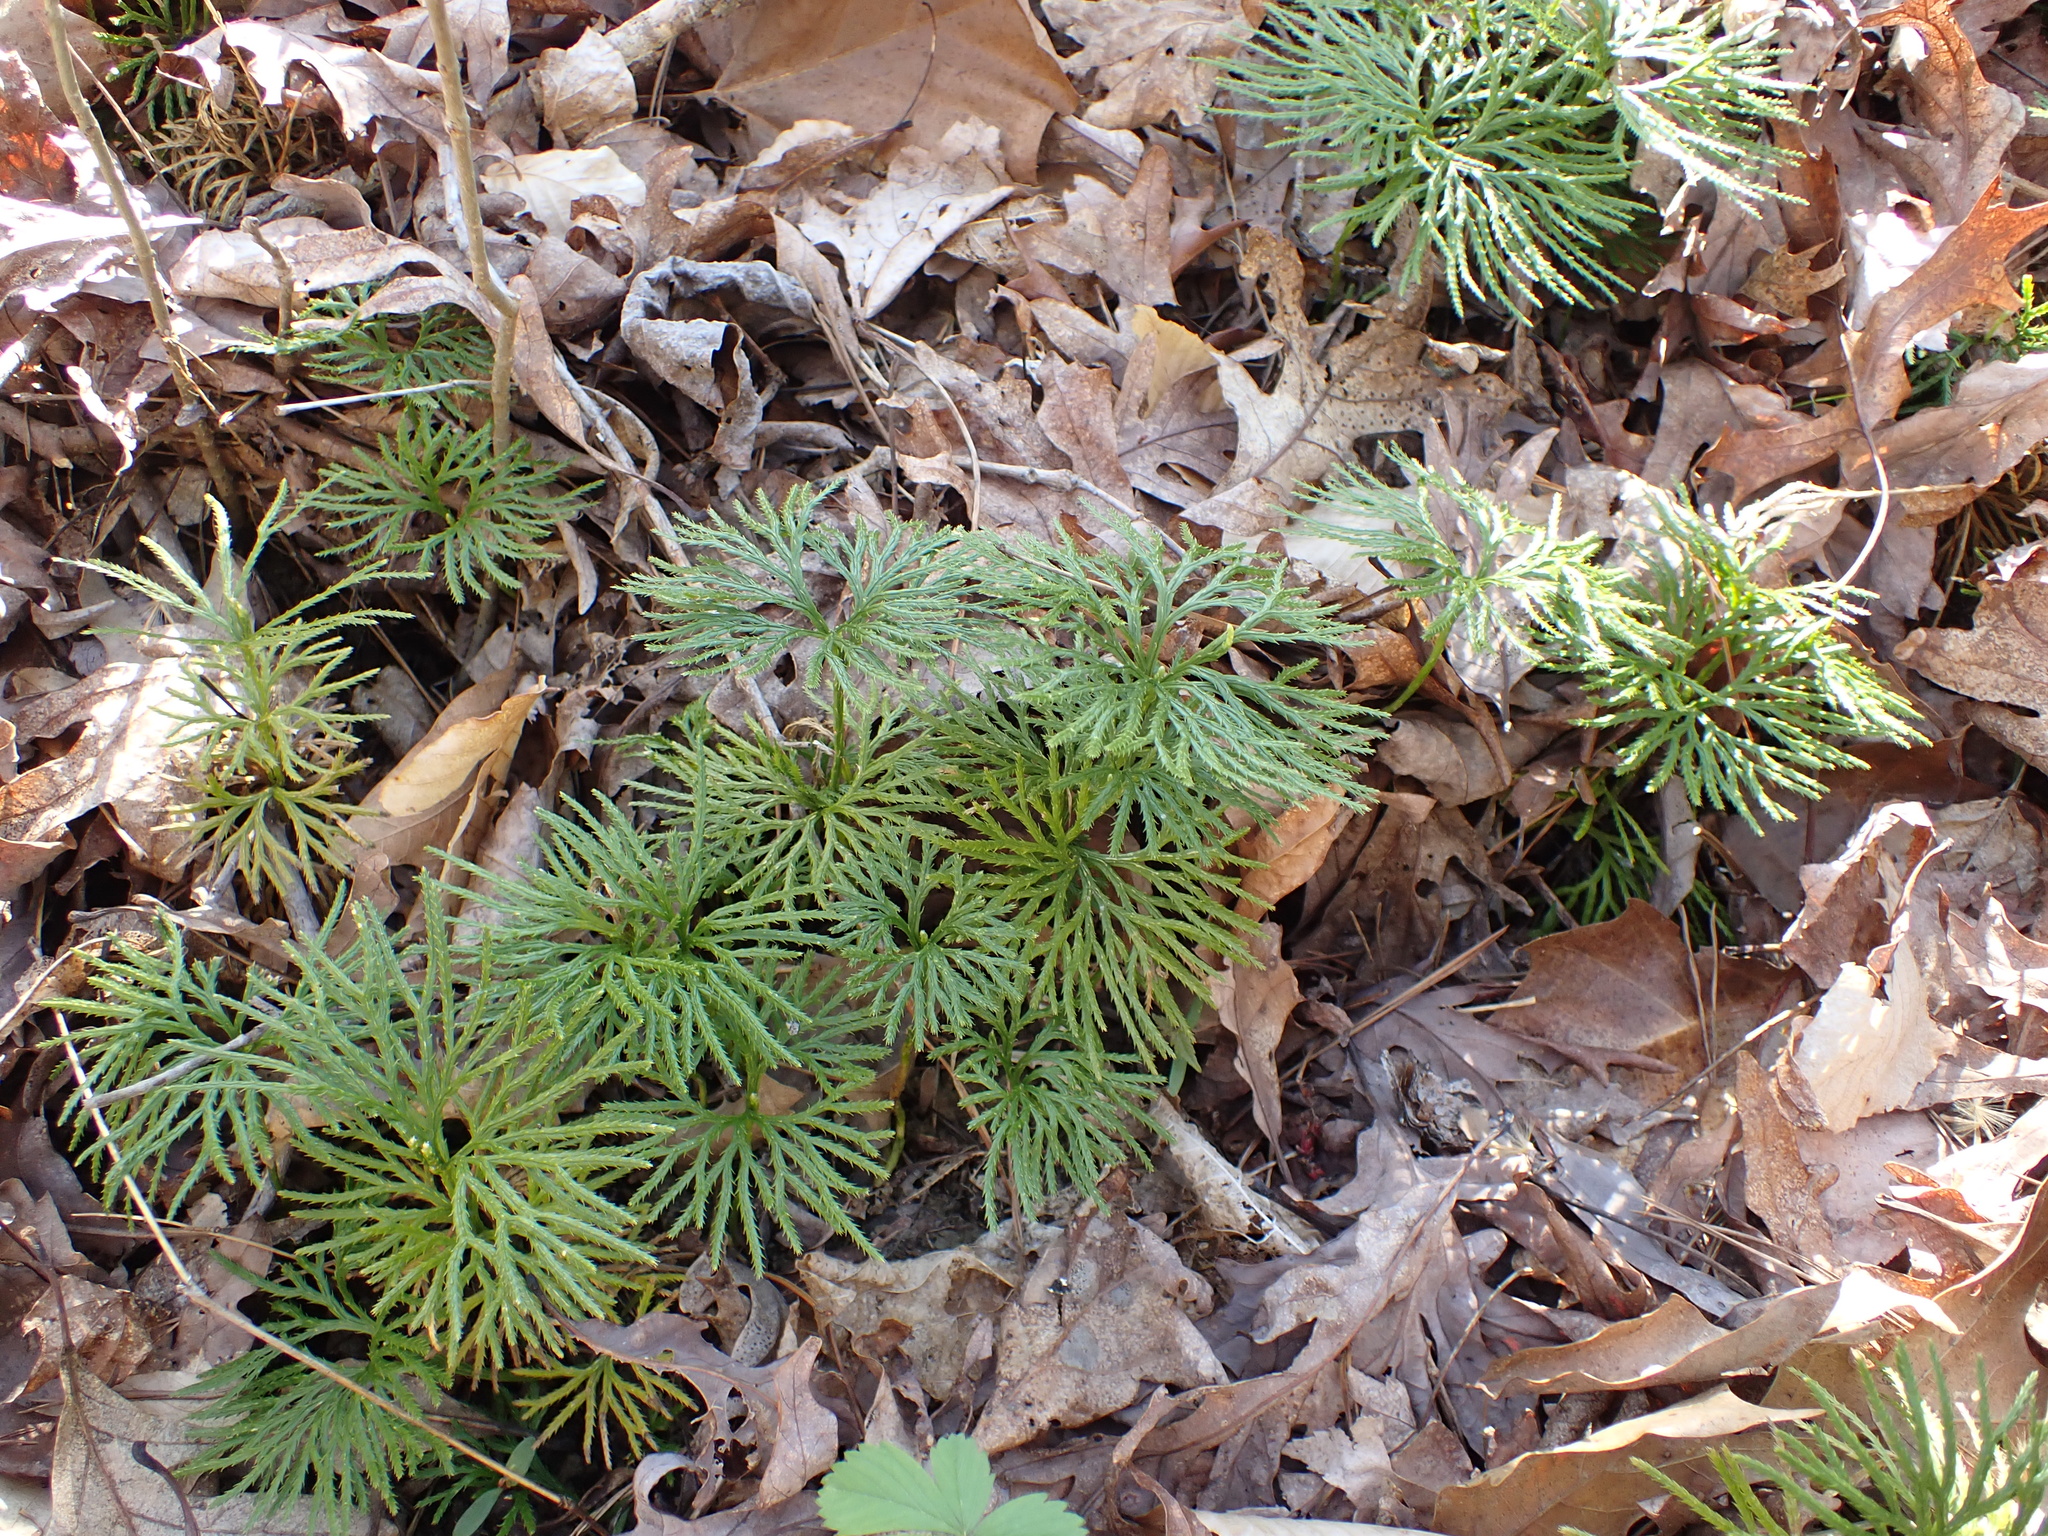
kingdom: Plantae
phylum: Tracheophyta
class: Lycopodiopsida
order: Lycopodiales
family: Lycopodiaceae
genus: Diphasiastrum
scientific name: Diphasiastrum digitatum
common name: Southern running-pine
